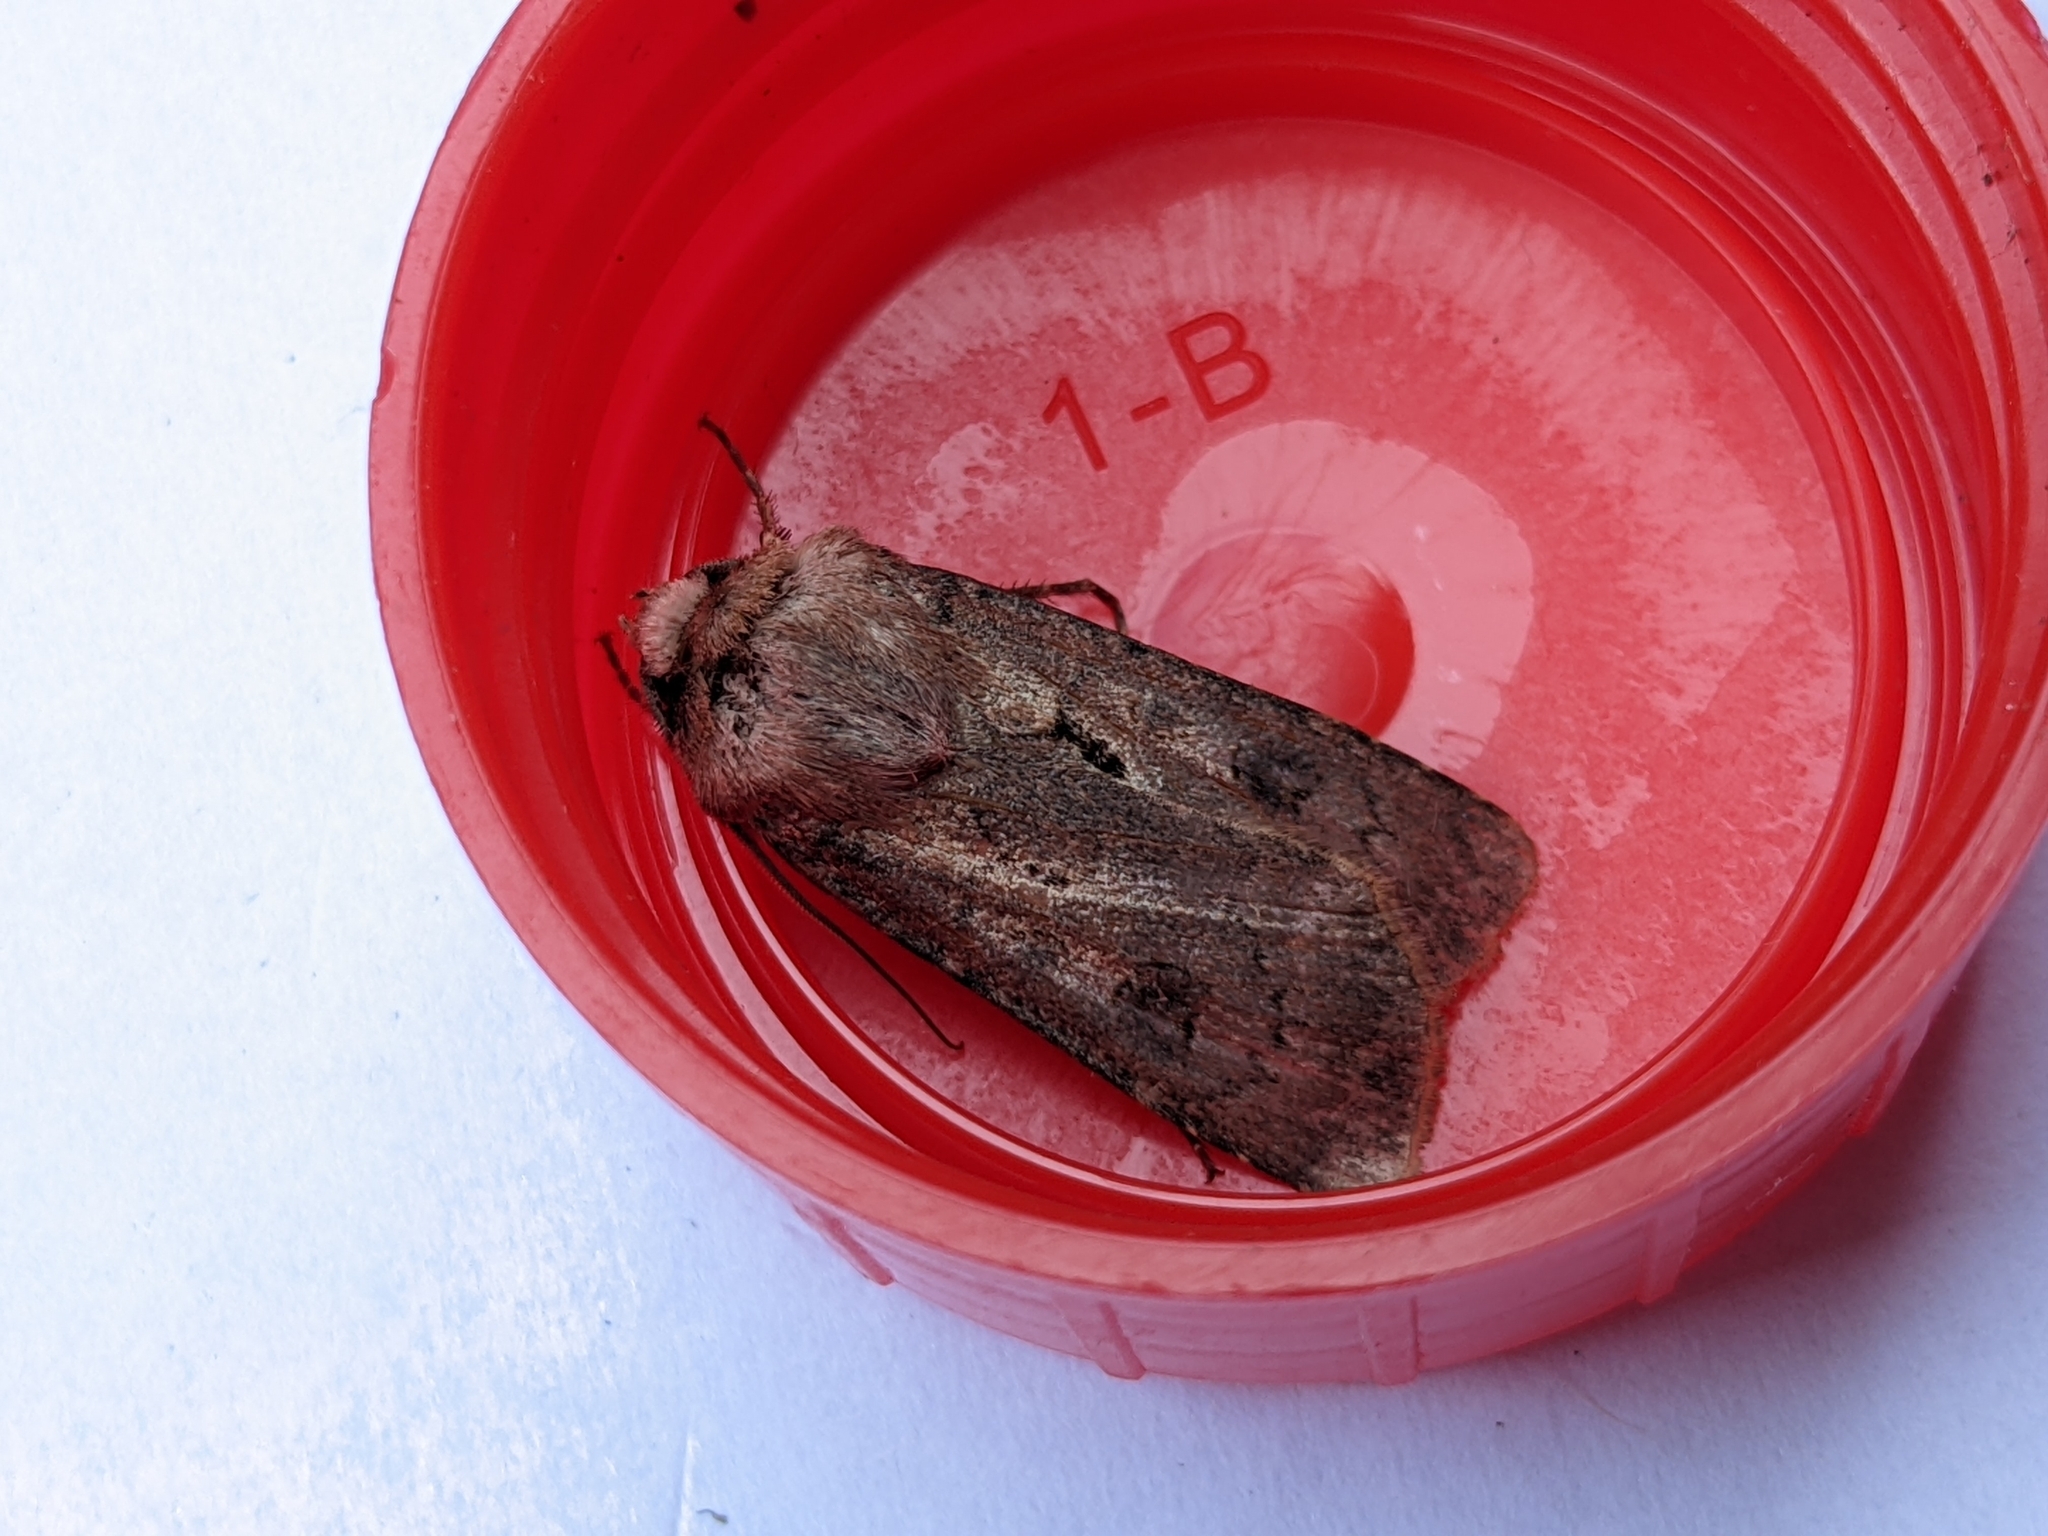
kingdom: Animalia
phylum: Arthropoda
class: Insecta
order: Lepidoptera
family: Noctuidae
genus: Agrotis
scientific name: Agrotis exclamationis
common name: Heart and dart
